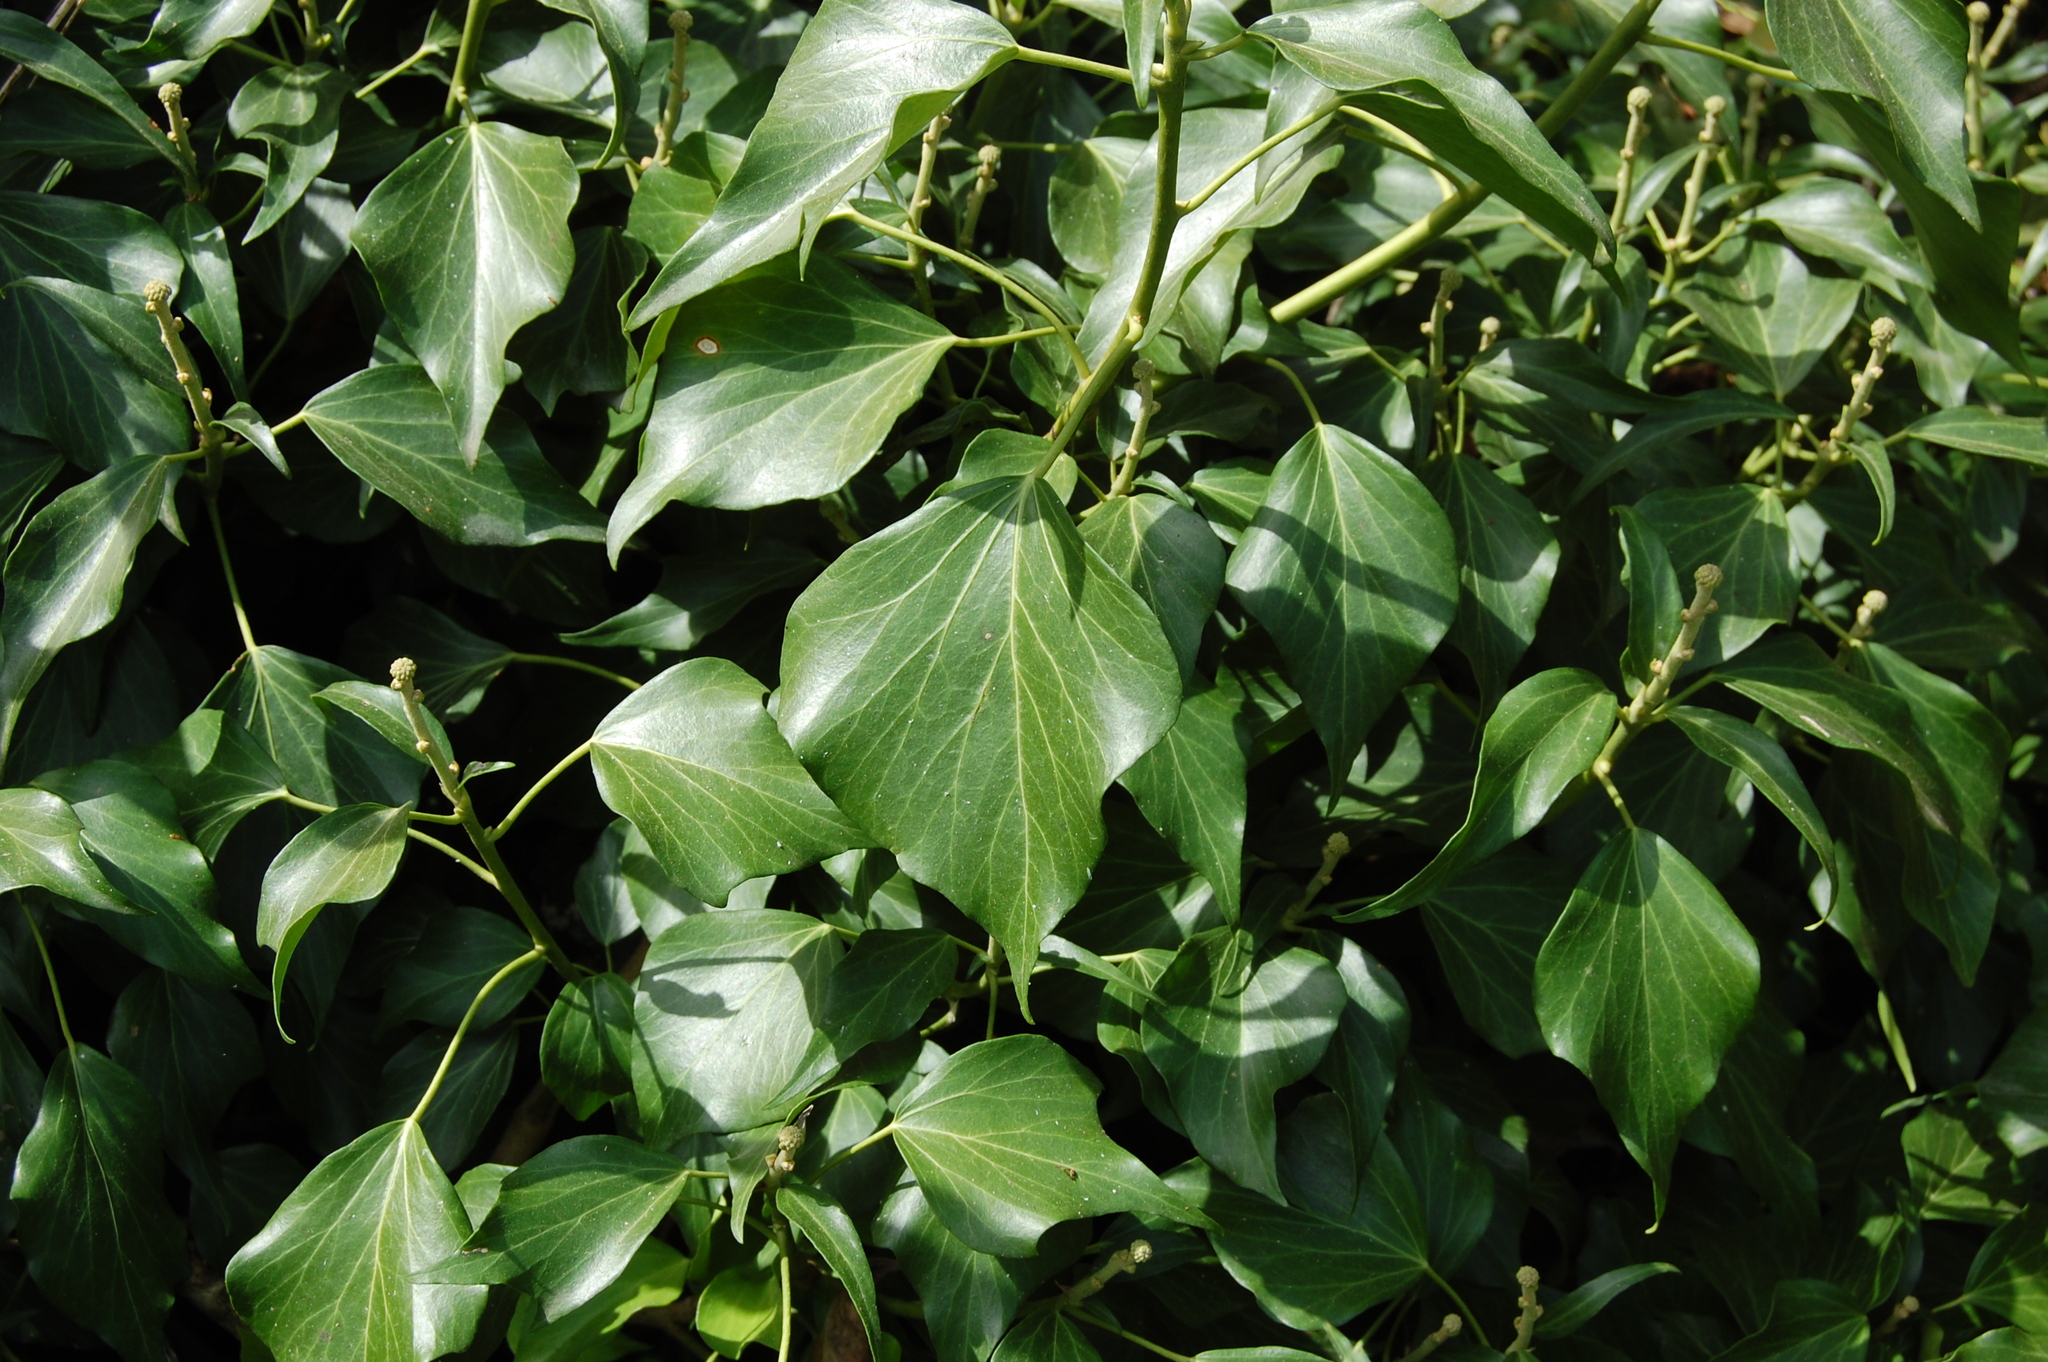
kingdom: Plantae
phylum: Tracheophyta
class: Magnoliopsida
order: Apiales
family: Araliaceae
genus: Hedera
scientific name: Hedera helix
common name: Ivy
